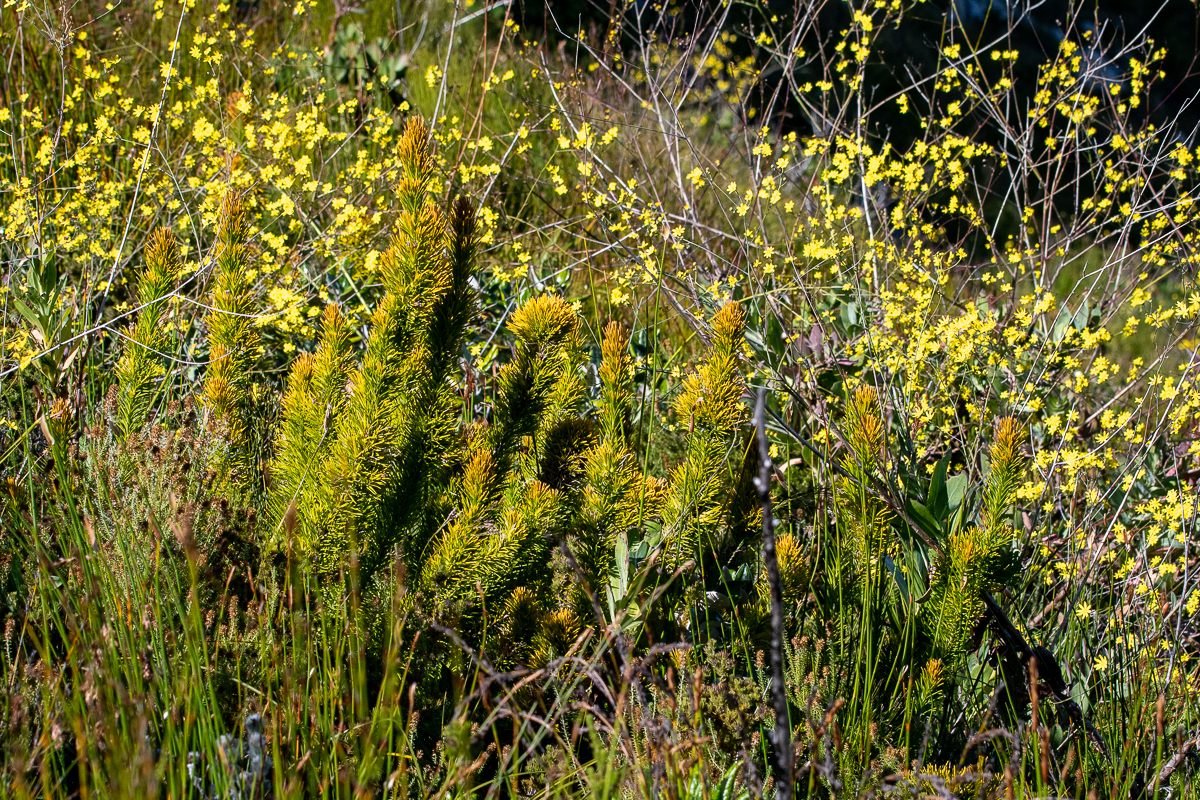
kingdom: Plantae
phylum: Tracheophyta
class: Magnoliopsida
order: Lamiales
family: Stilbaceae
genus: Retzia
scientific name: Retzia capensis
